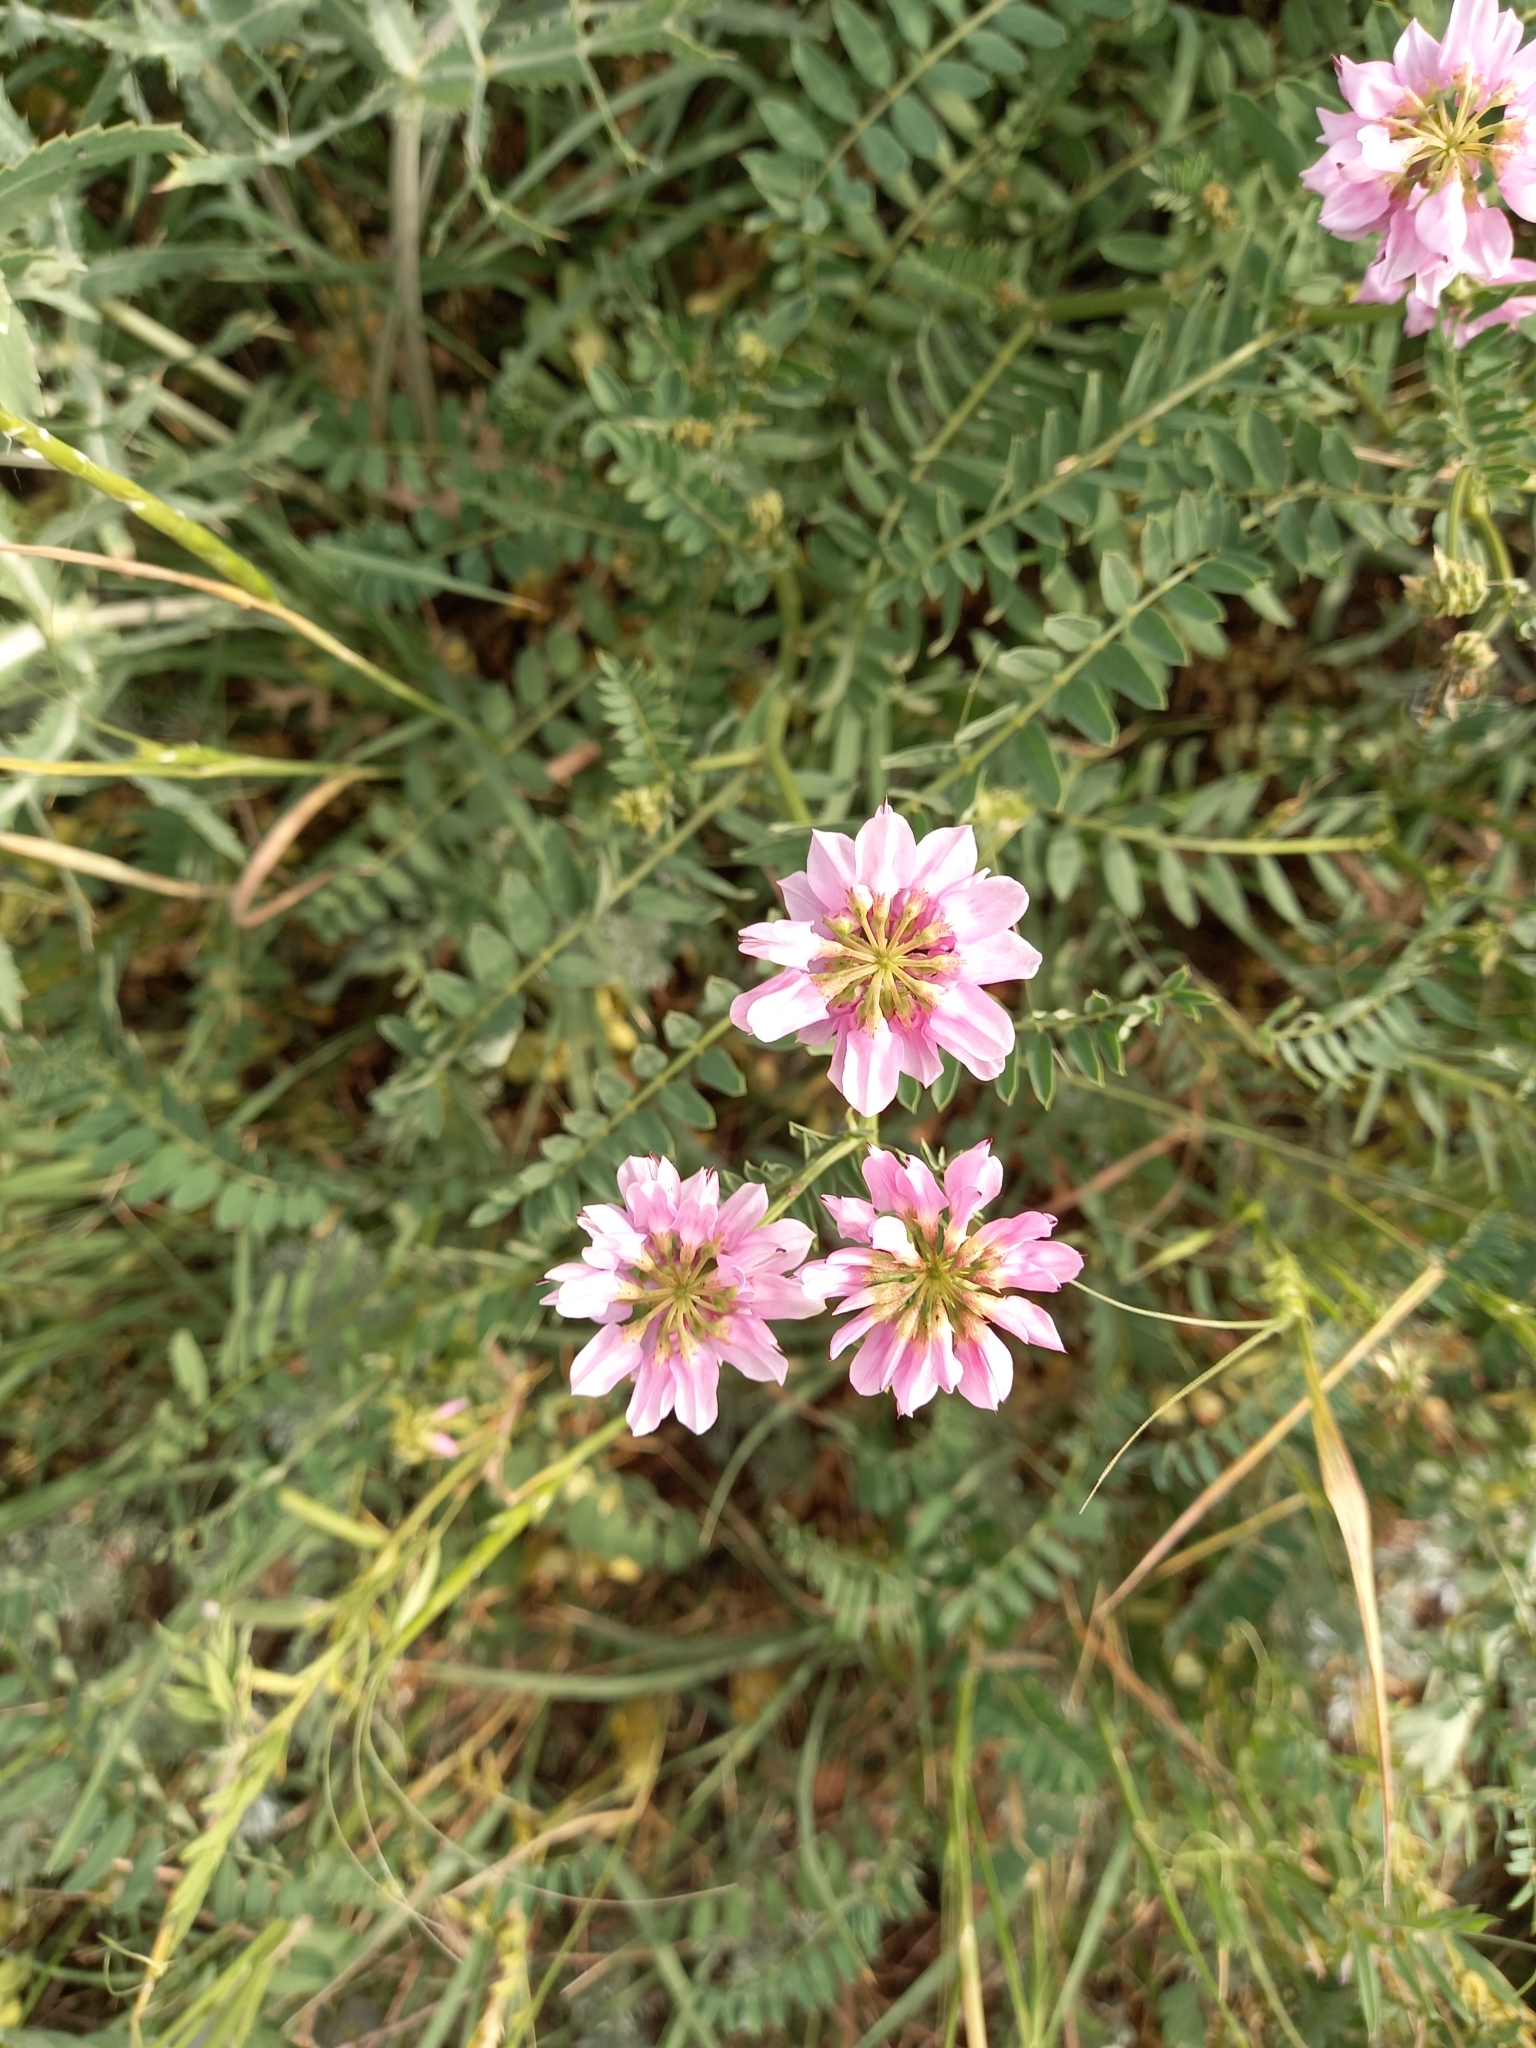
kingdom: Plantae
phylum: Tracheophyta
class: Magnoliopsida
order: Fabales
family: Fabaceae
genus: Coronilla
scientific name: Coronilla varia
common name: Crownvetch
